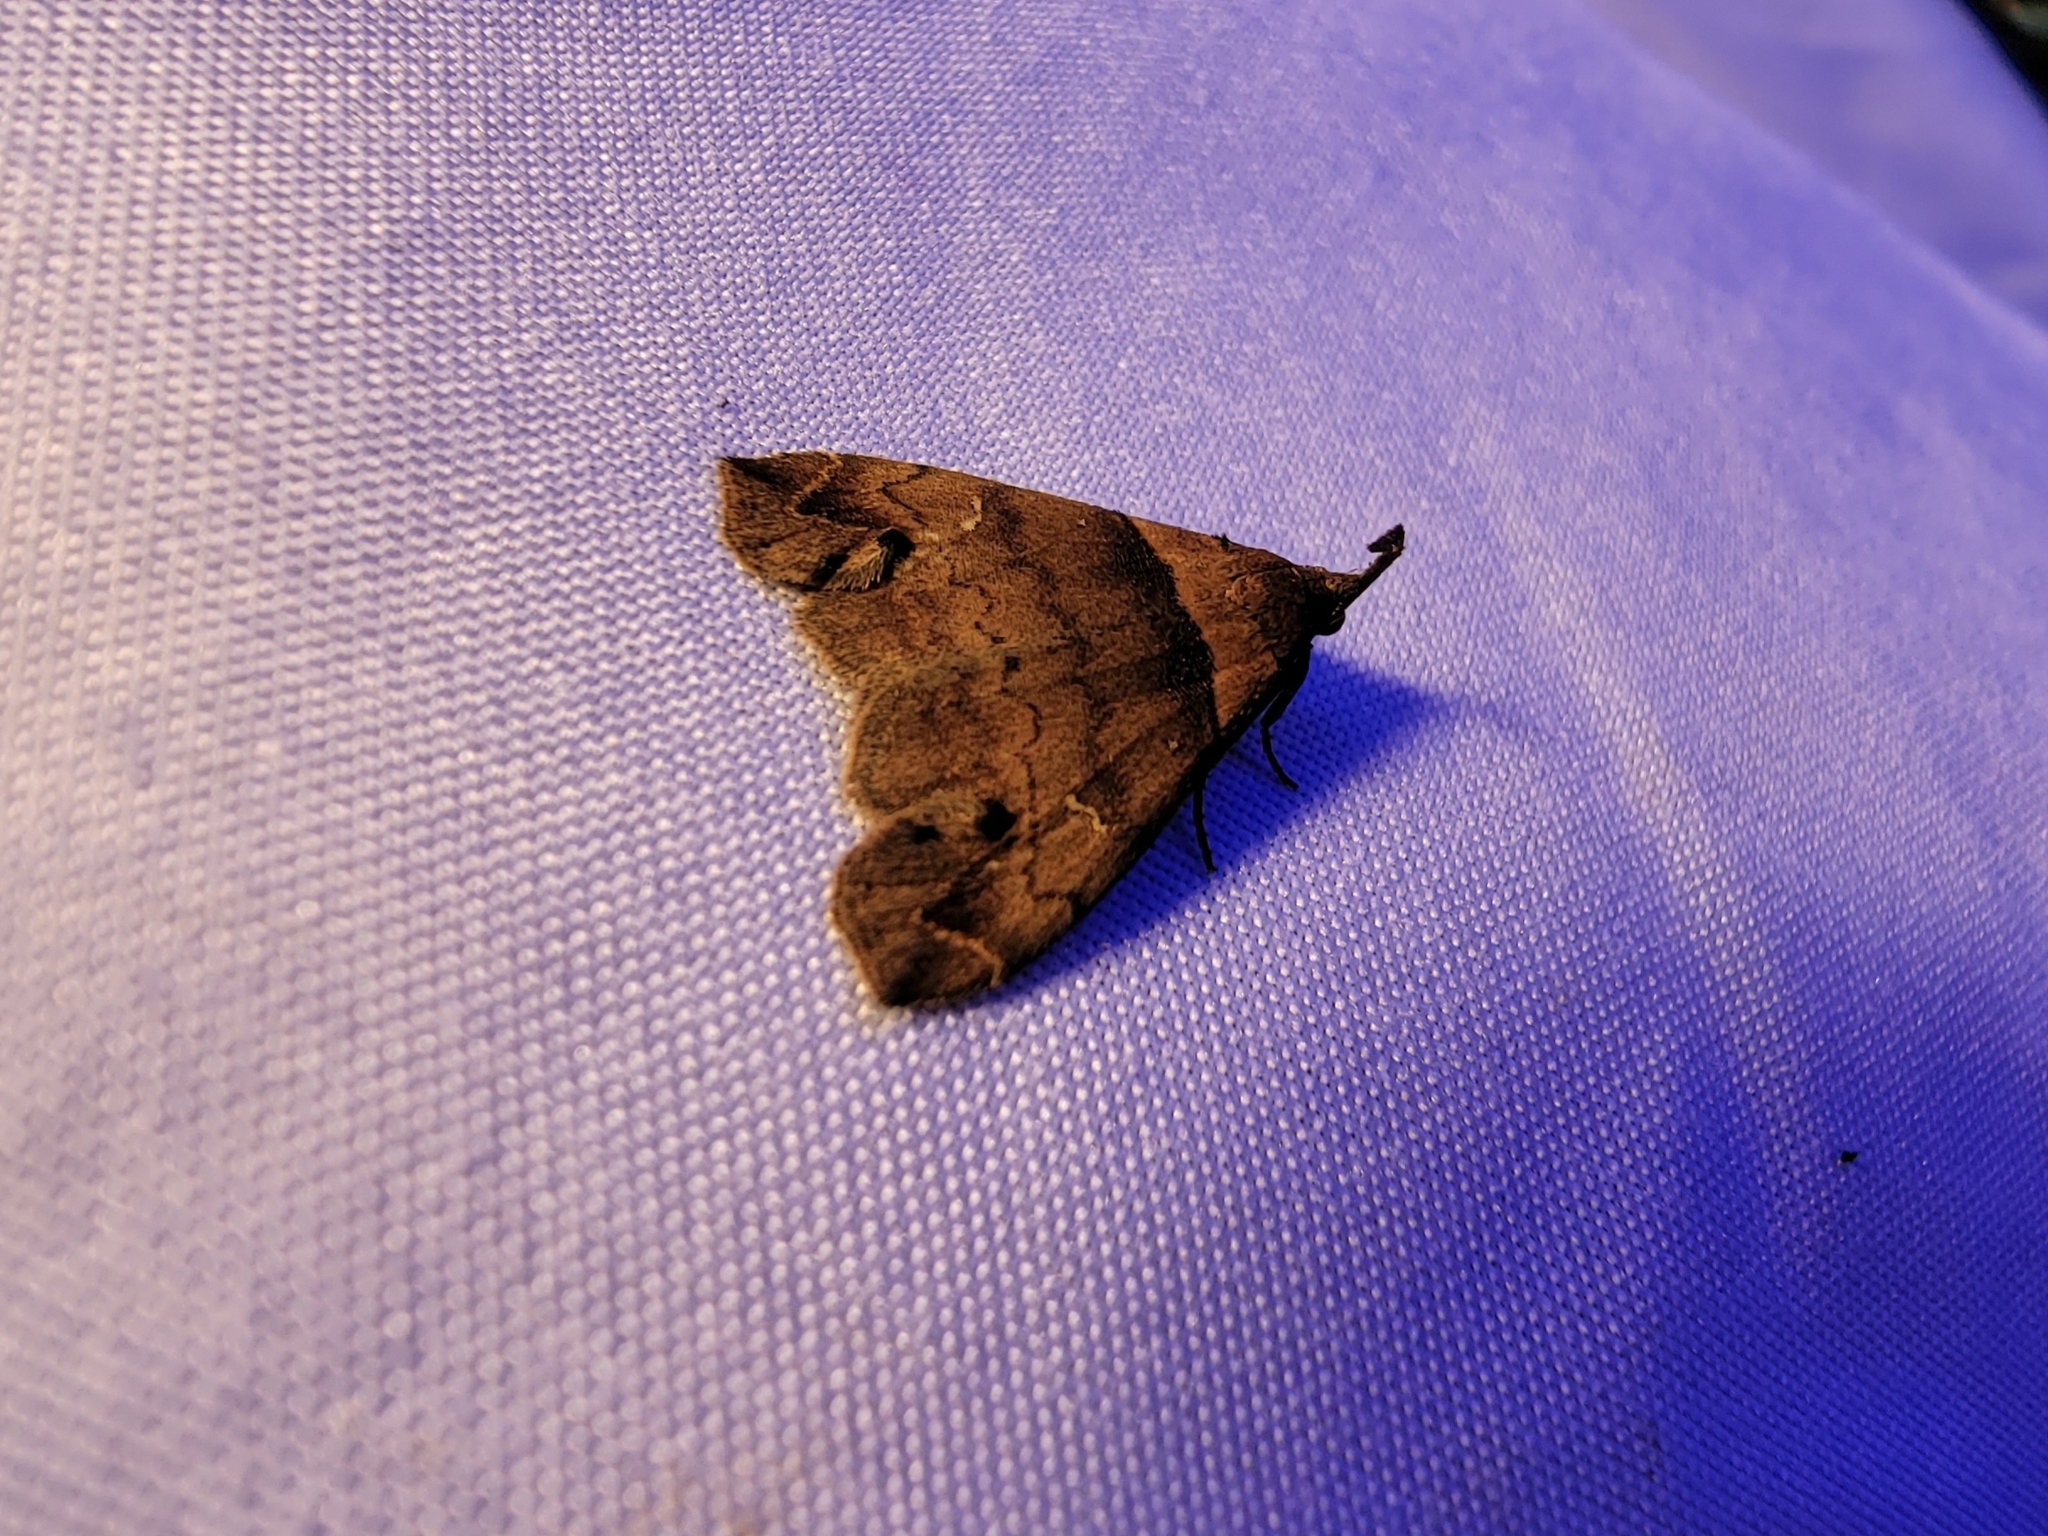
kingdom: Animalia
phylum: Arthropoda
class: Insecta
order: Lepidoptera
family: Erebidae
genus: Lascoria
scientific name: Lascoria ambigualis
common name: Ambiguous moth
